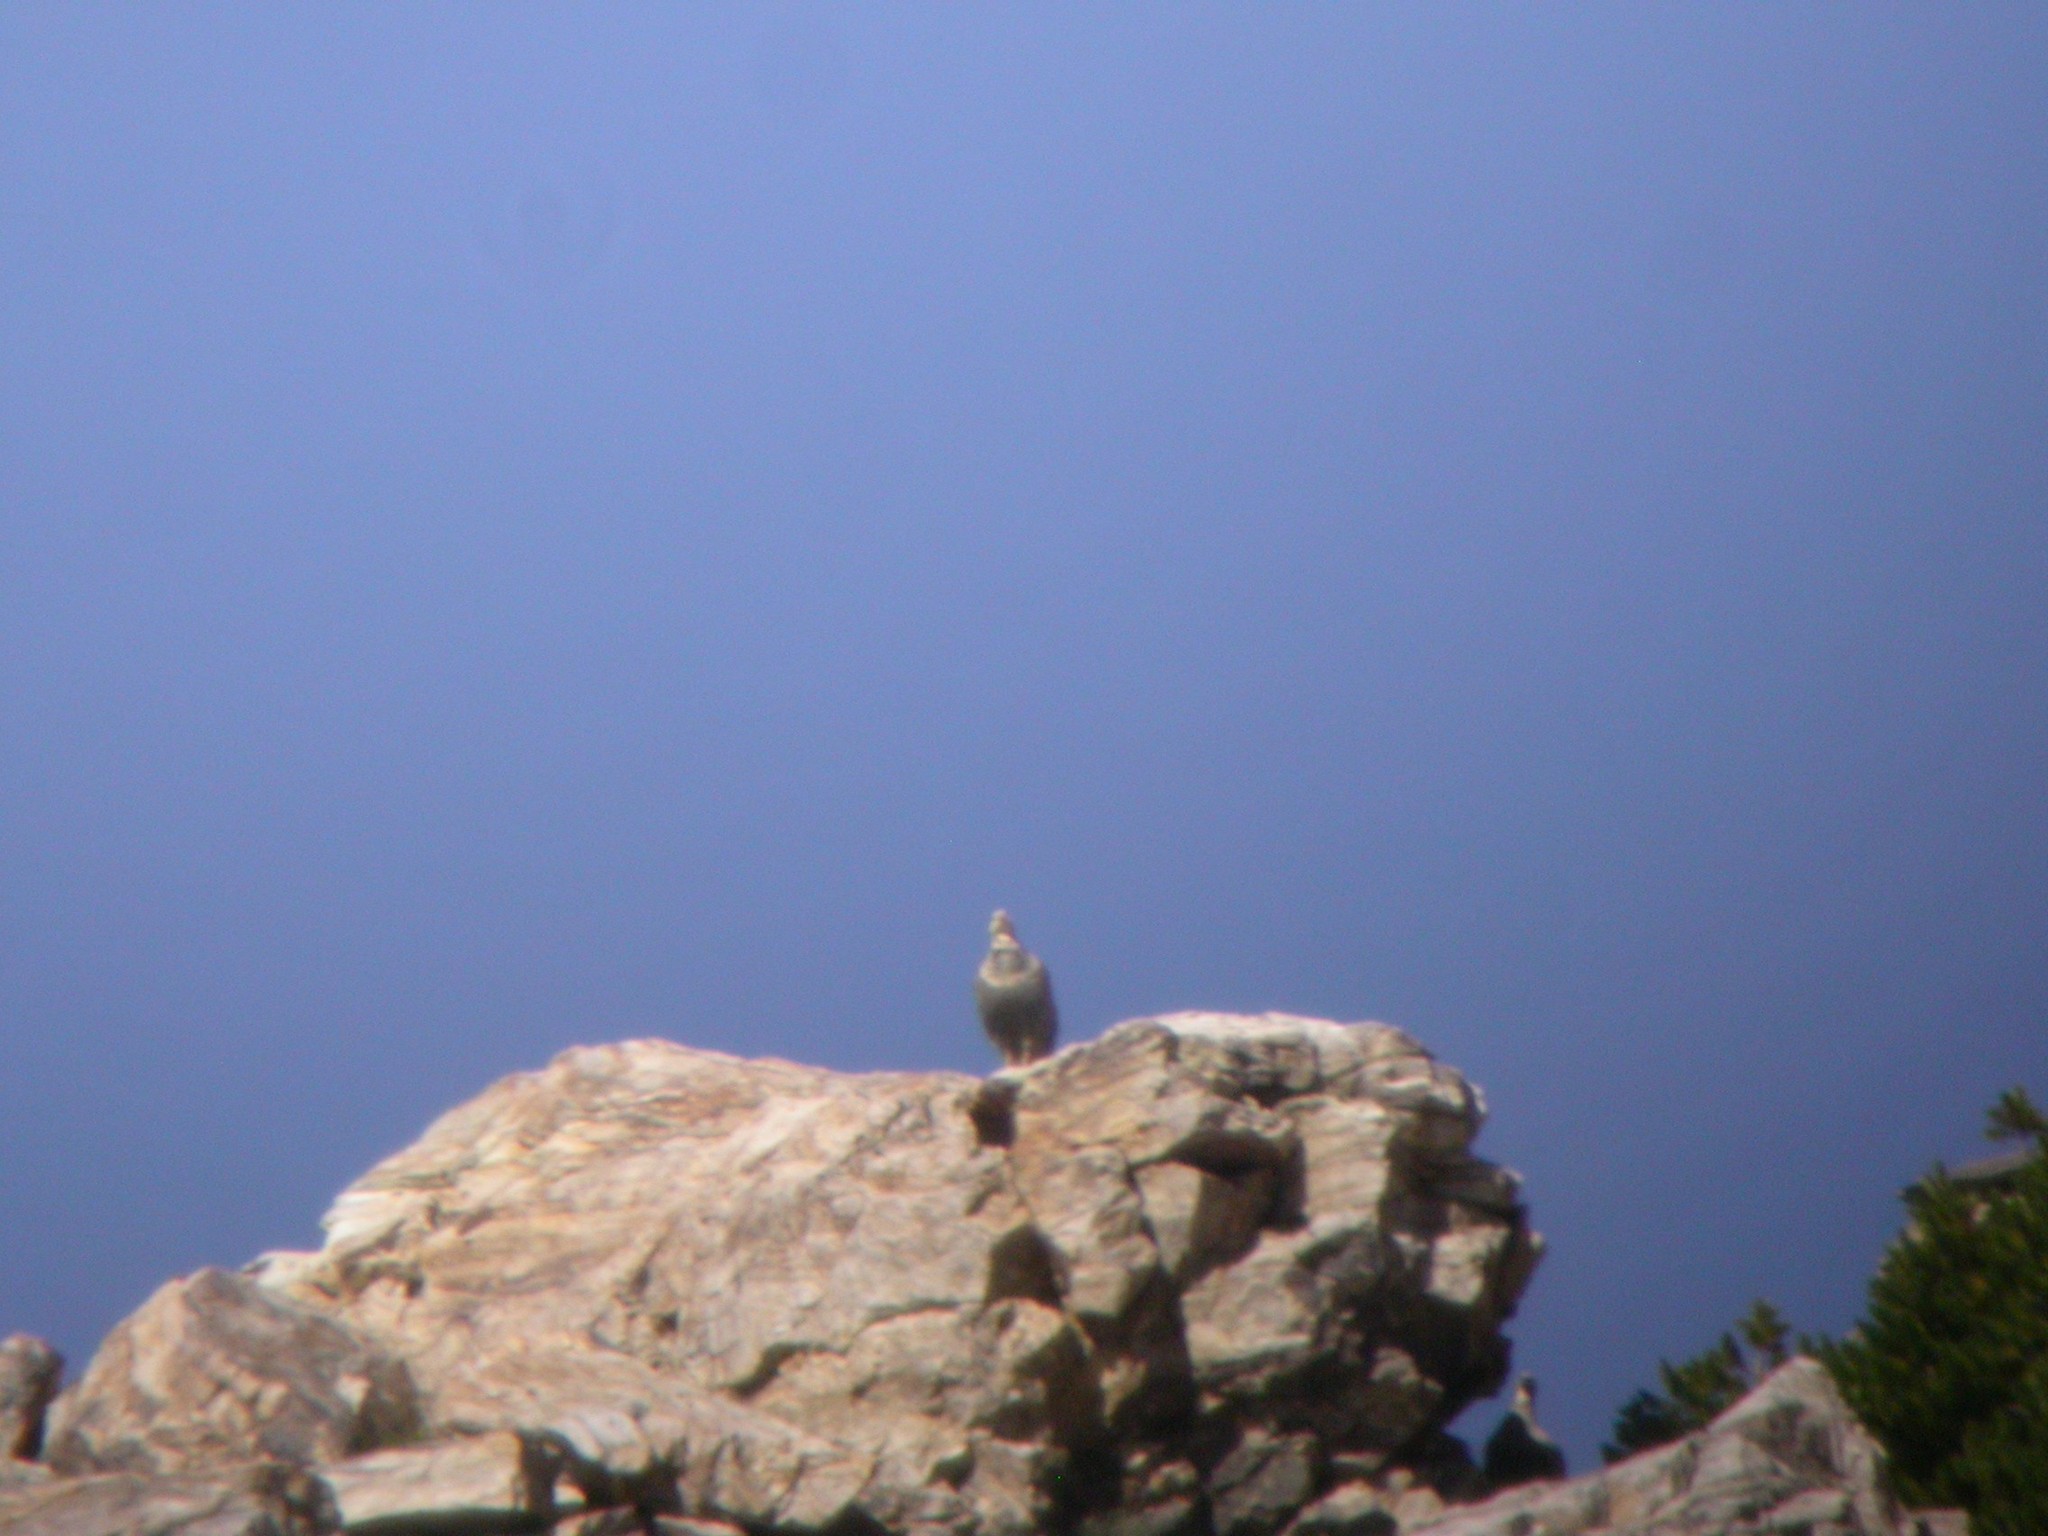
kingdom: Animalia
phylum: Chordata
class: Aves
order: Galliformes
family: Phasianidae
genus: Tetraogallus
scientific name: Tetraogallus himalayensis
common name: Himalayan snowcock
